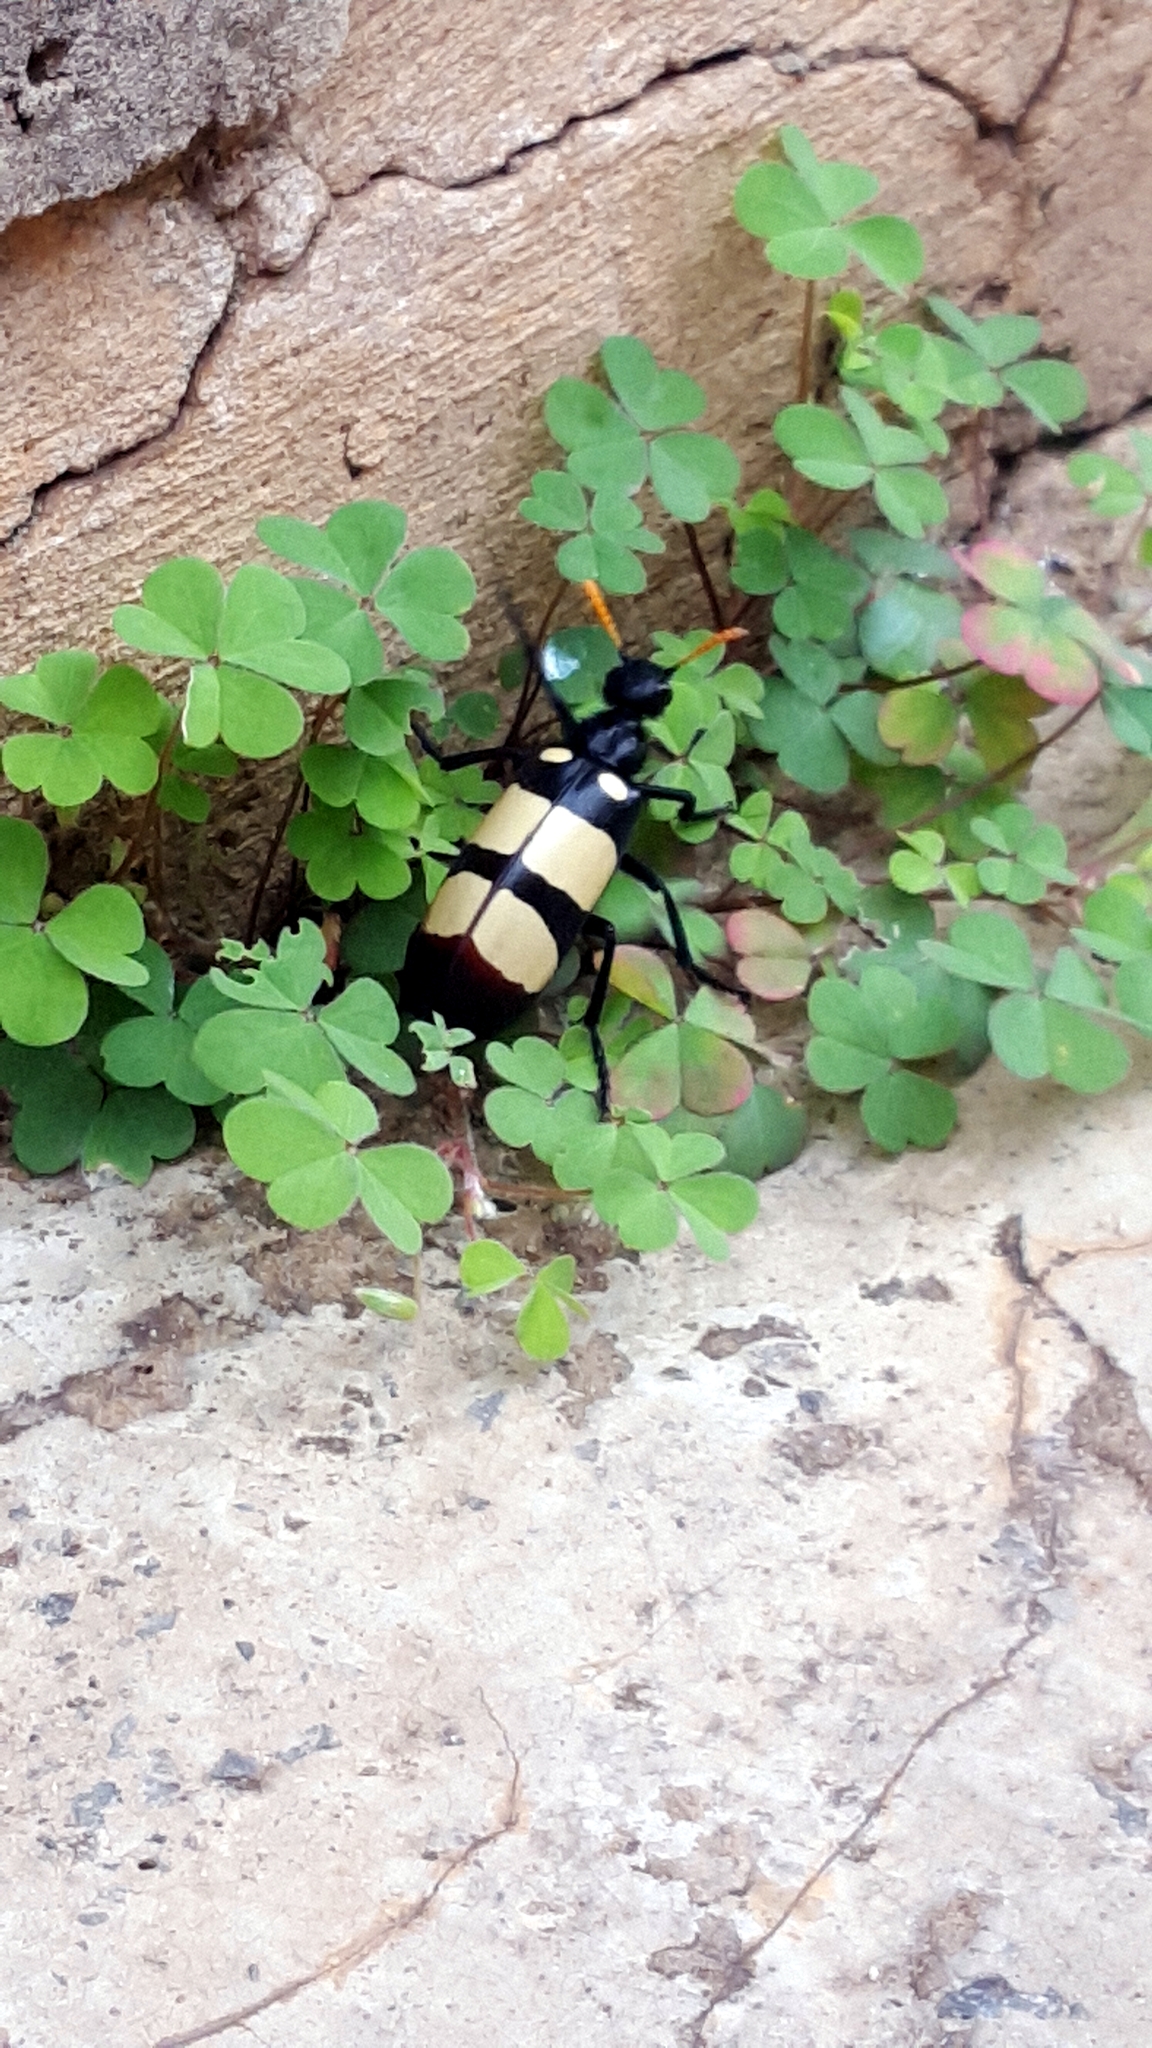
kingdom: Animalia
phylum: Arthropoda
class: Insecta
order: Coleoptera
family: Meloidae
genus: Hycleus
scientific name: Hycleus
